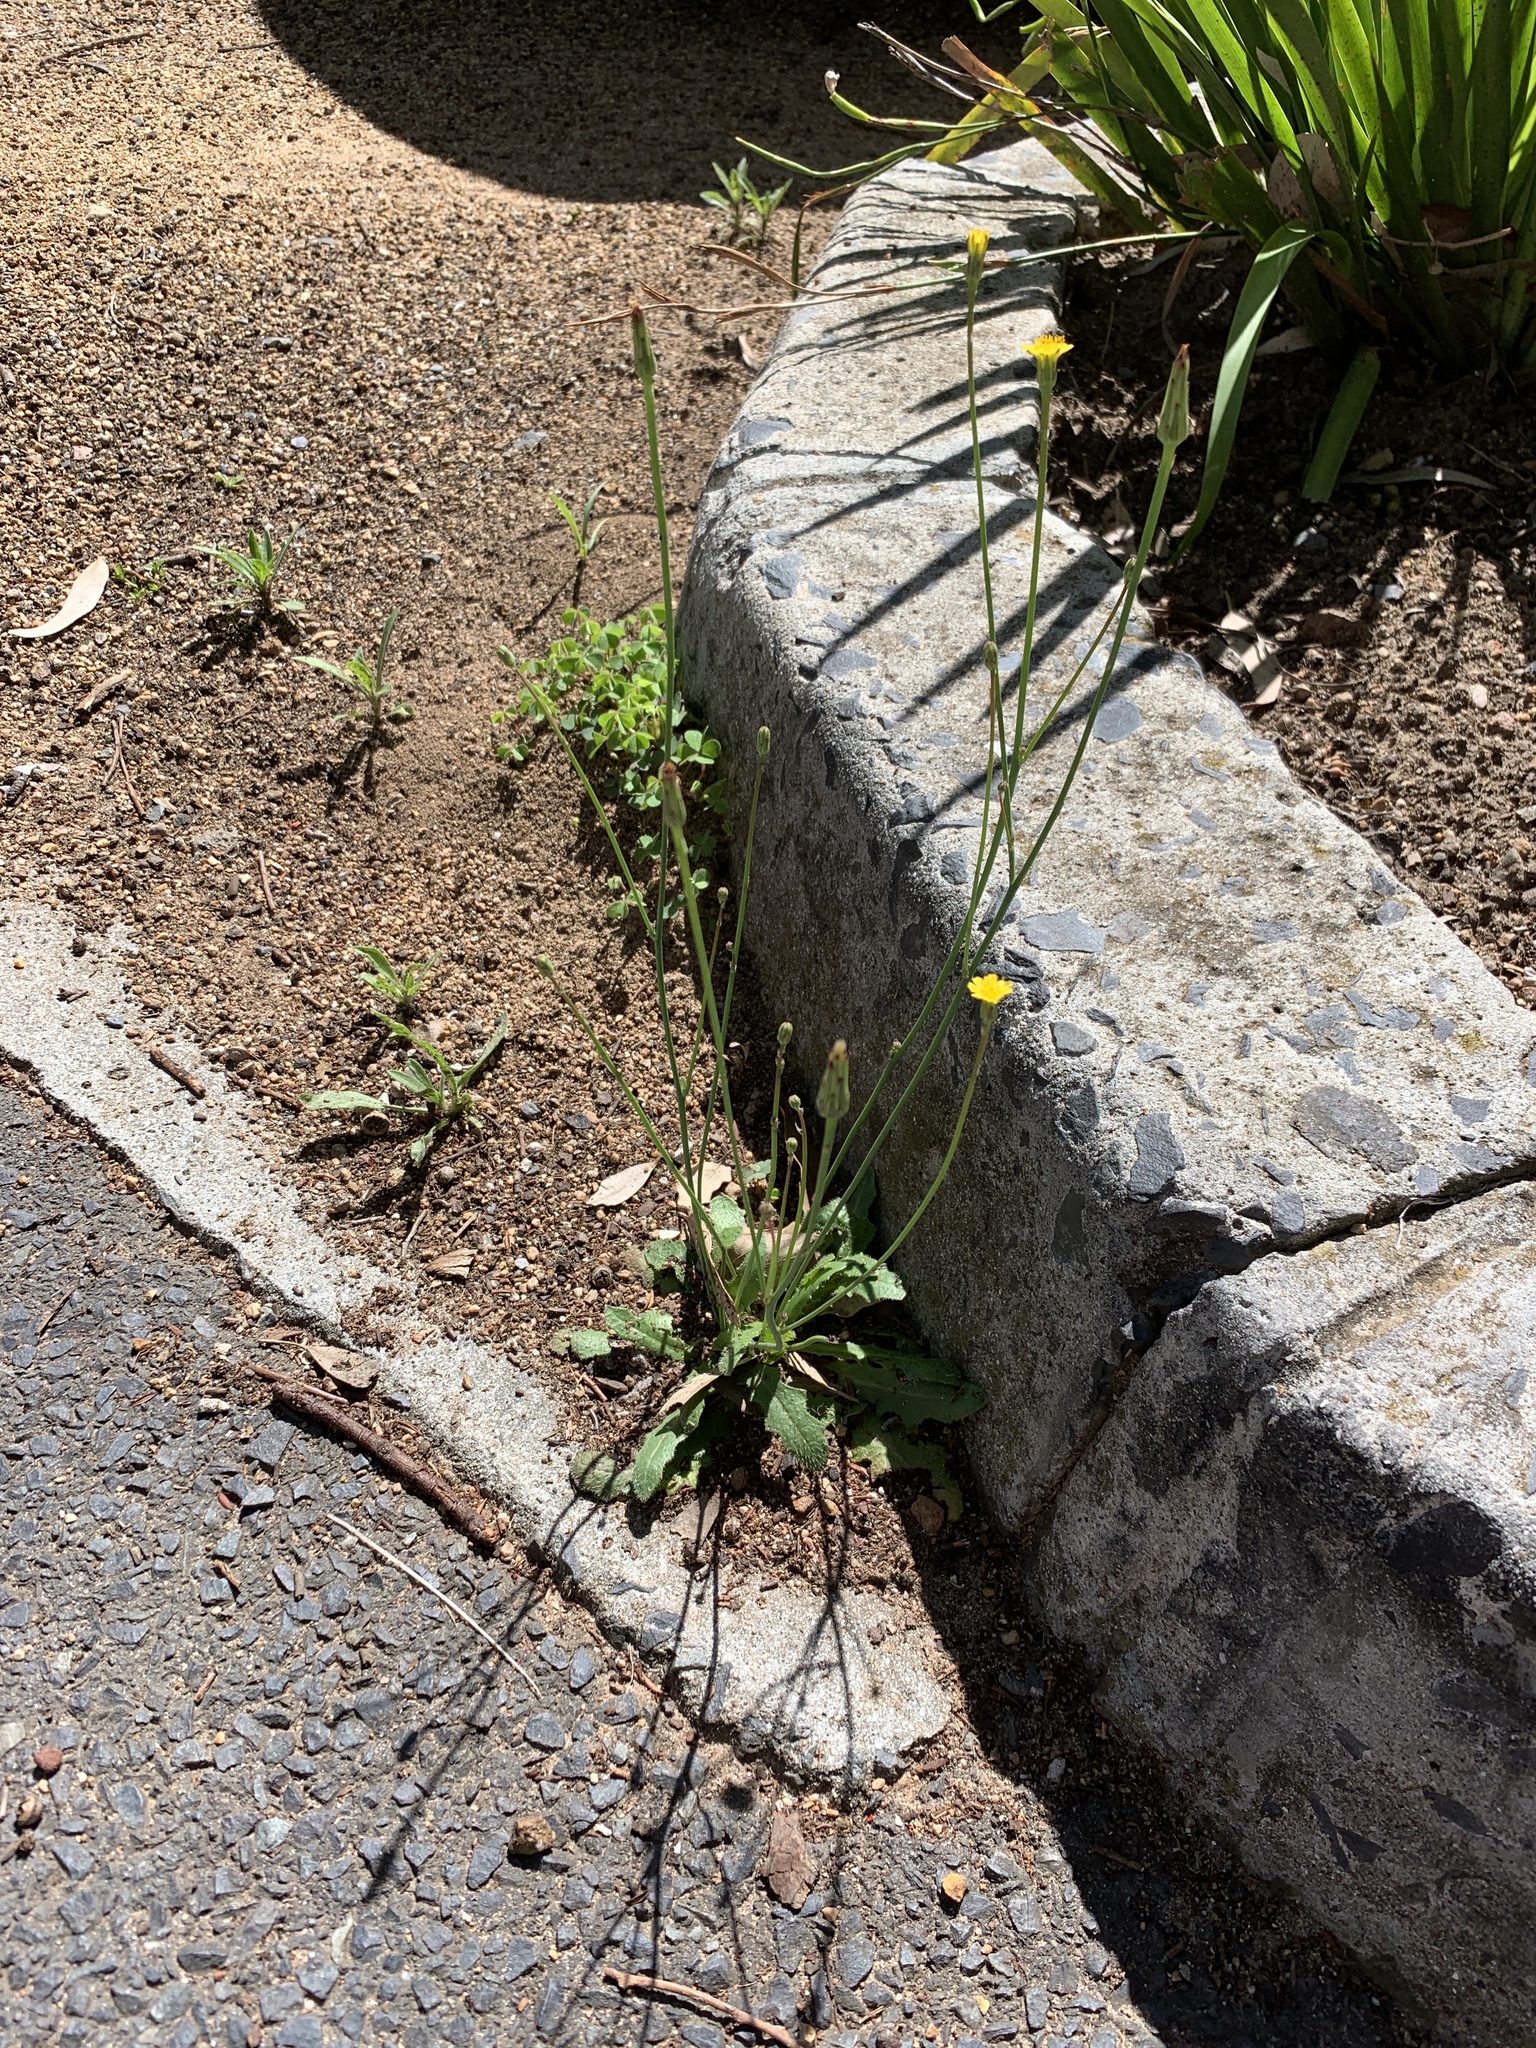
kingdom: Plantae
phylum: Tracheophyta
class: Magnoliopsida
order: Asterales
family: Asteraceae
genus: Hypochaeris
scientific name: Hypochaeris radicata
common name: Flatweed
